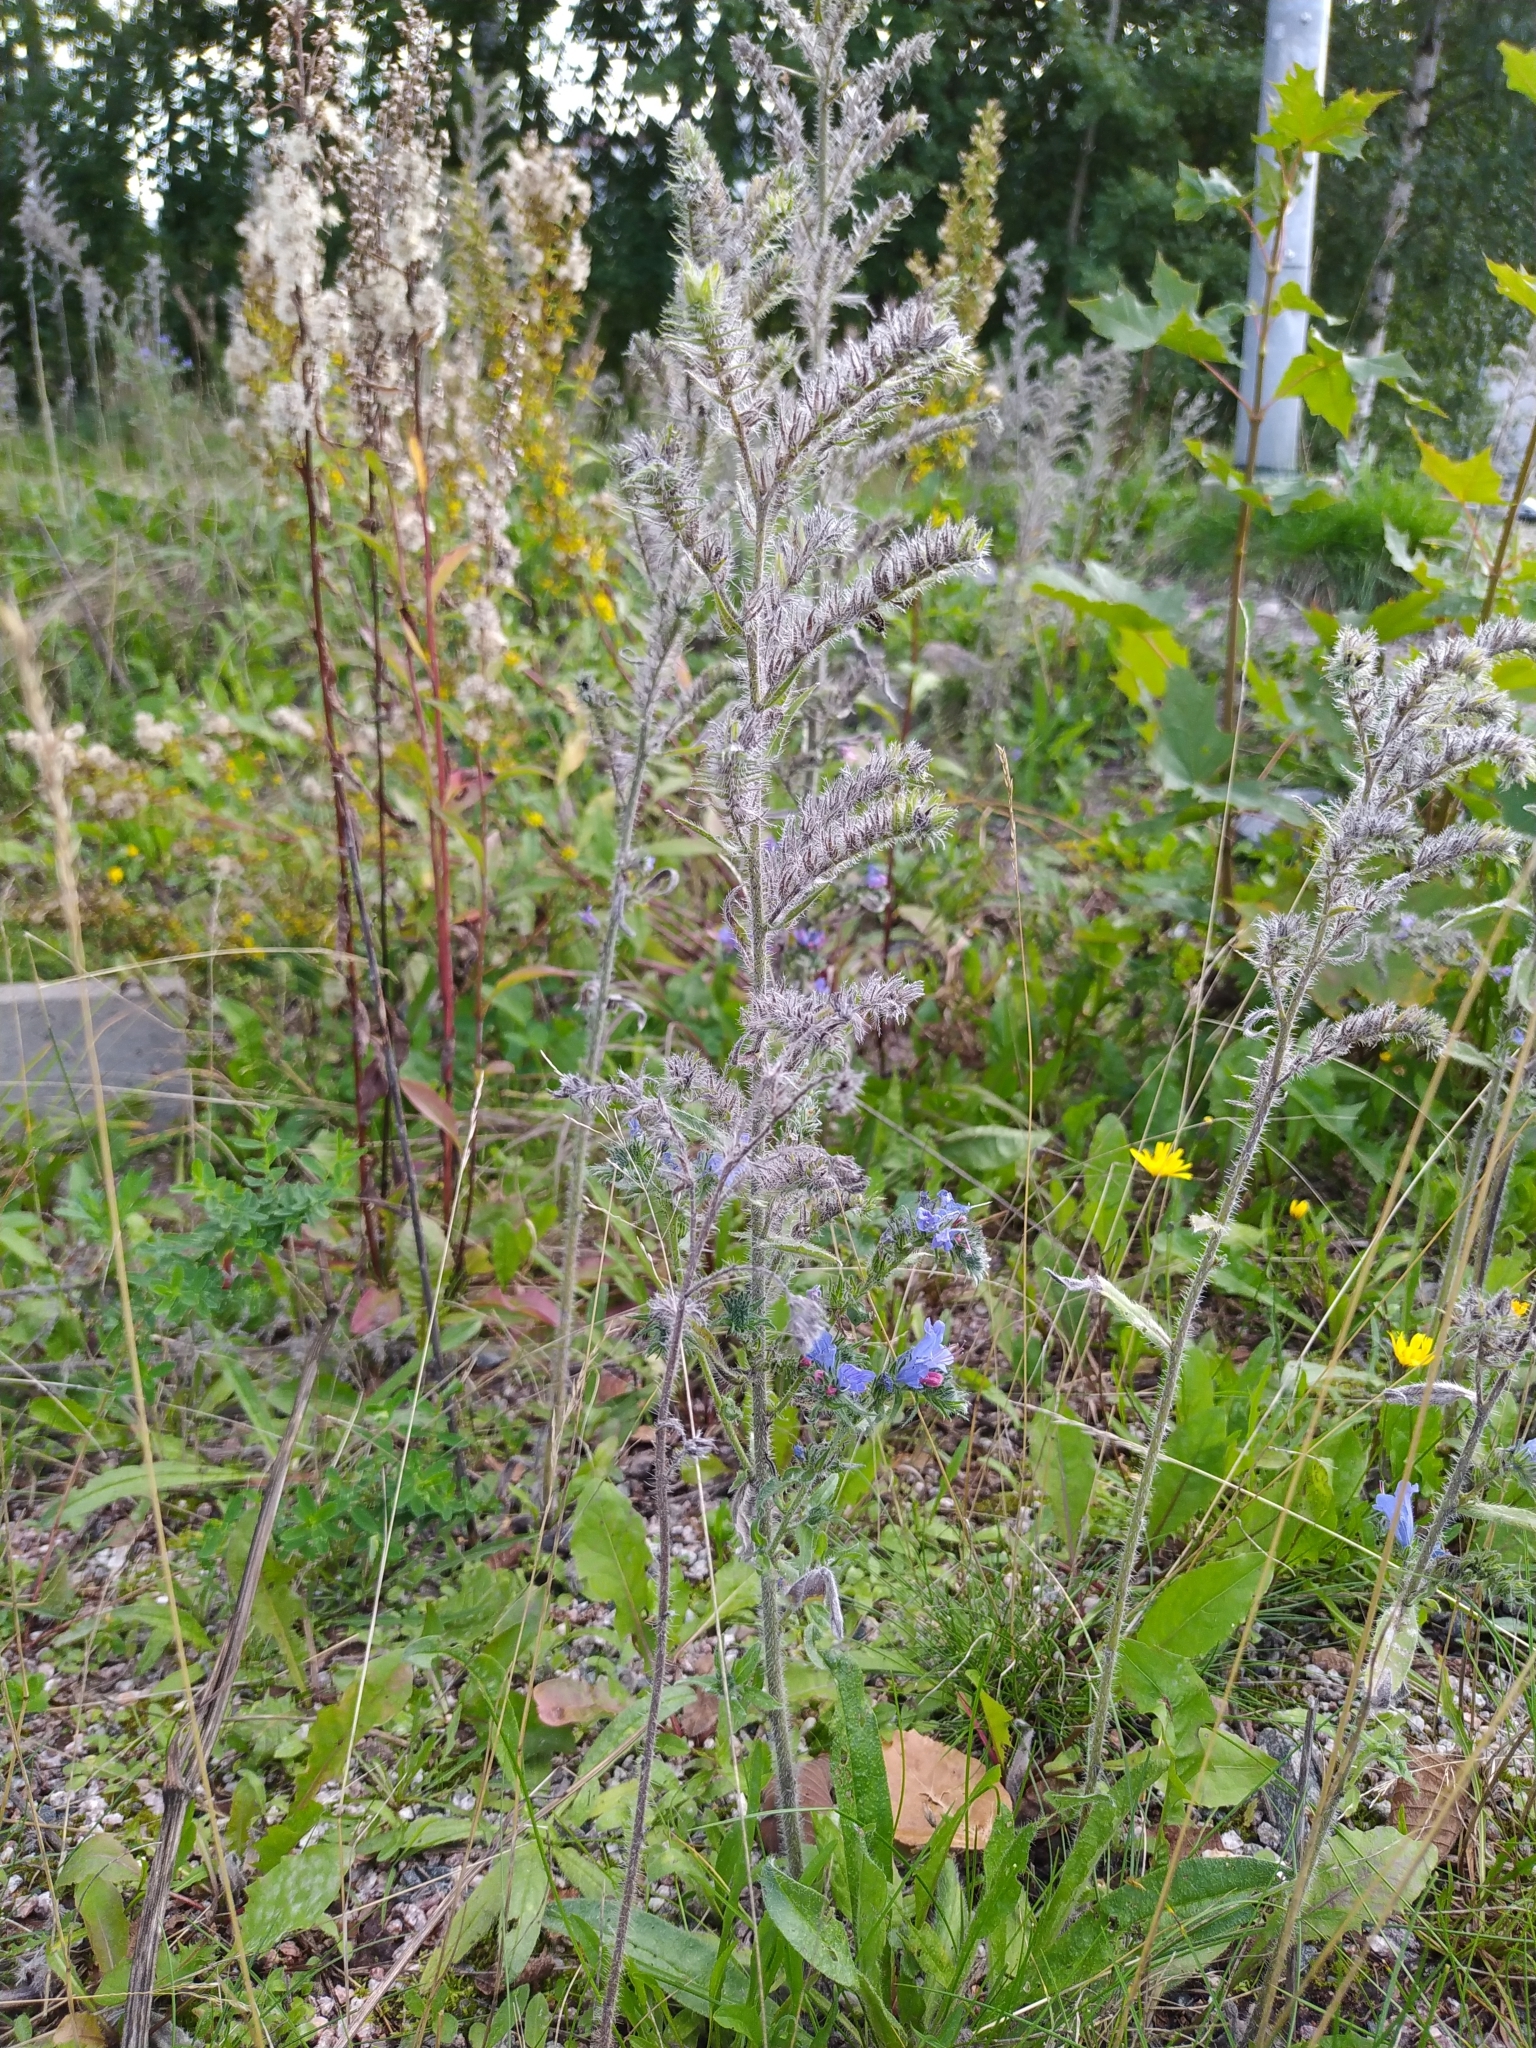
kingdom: Plantae
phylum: Tracheophyta
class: Magnoliopsida
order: Boraginales
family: Boraginaceae
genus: Echium
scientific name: Echium vulgare
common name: Common viper's bugloss
